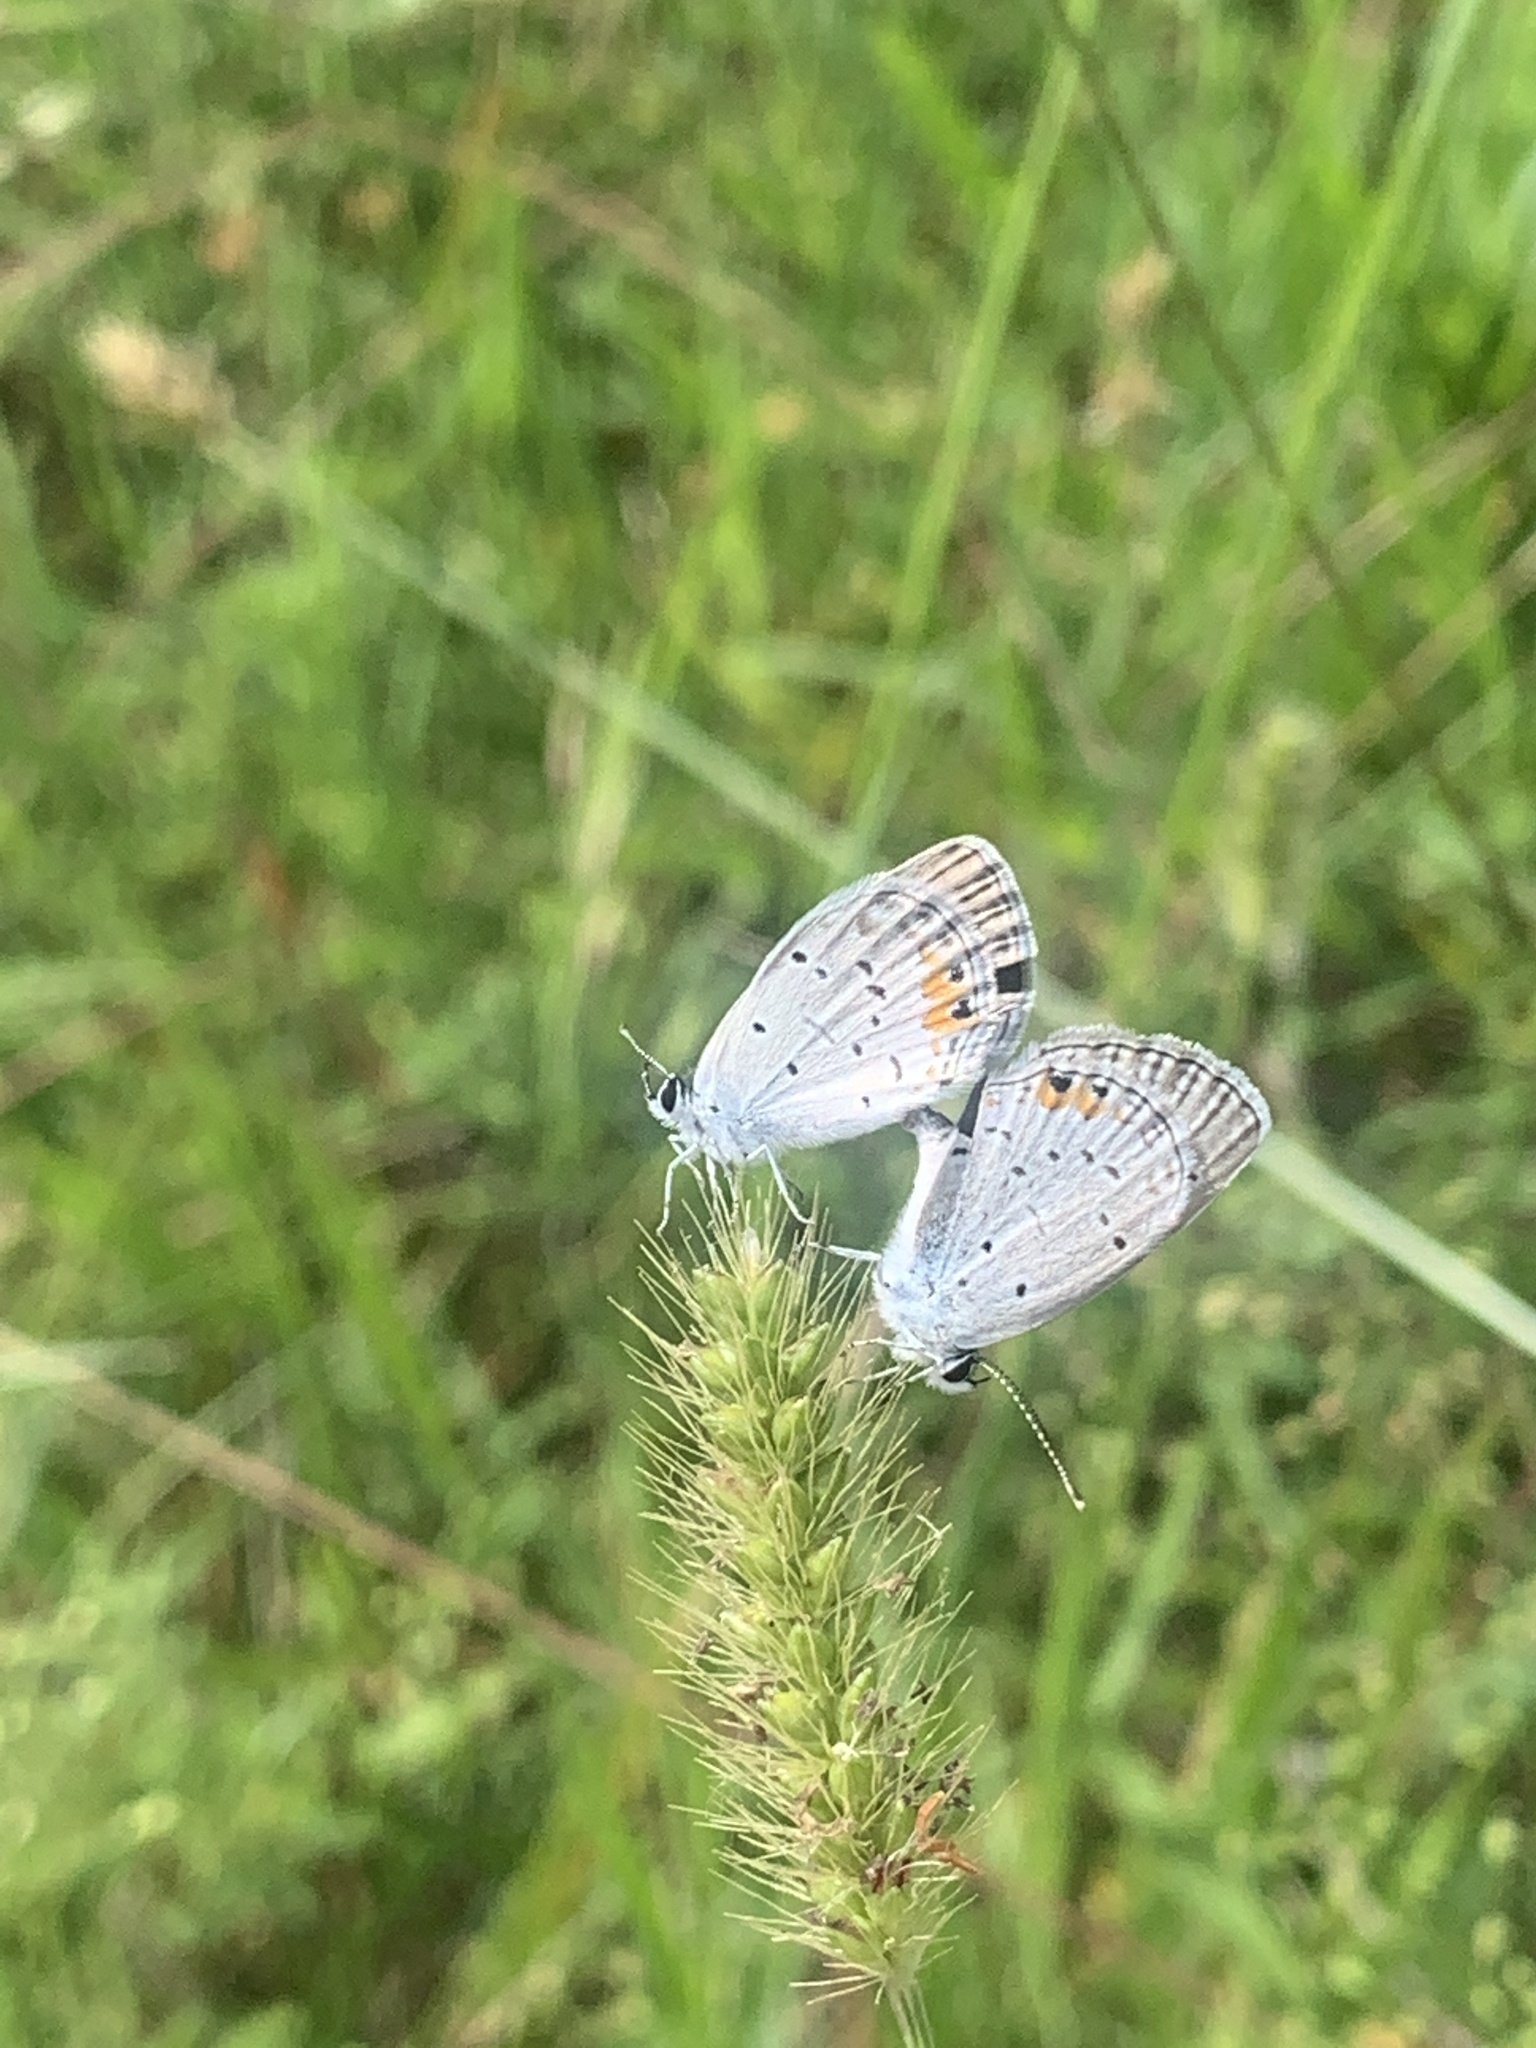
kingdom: Animalia
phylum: Arthropoda
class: Insecta
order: Lepidoptera
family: Lycaenidae
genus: Elkalyce
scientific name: Elkalyce comyntas
